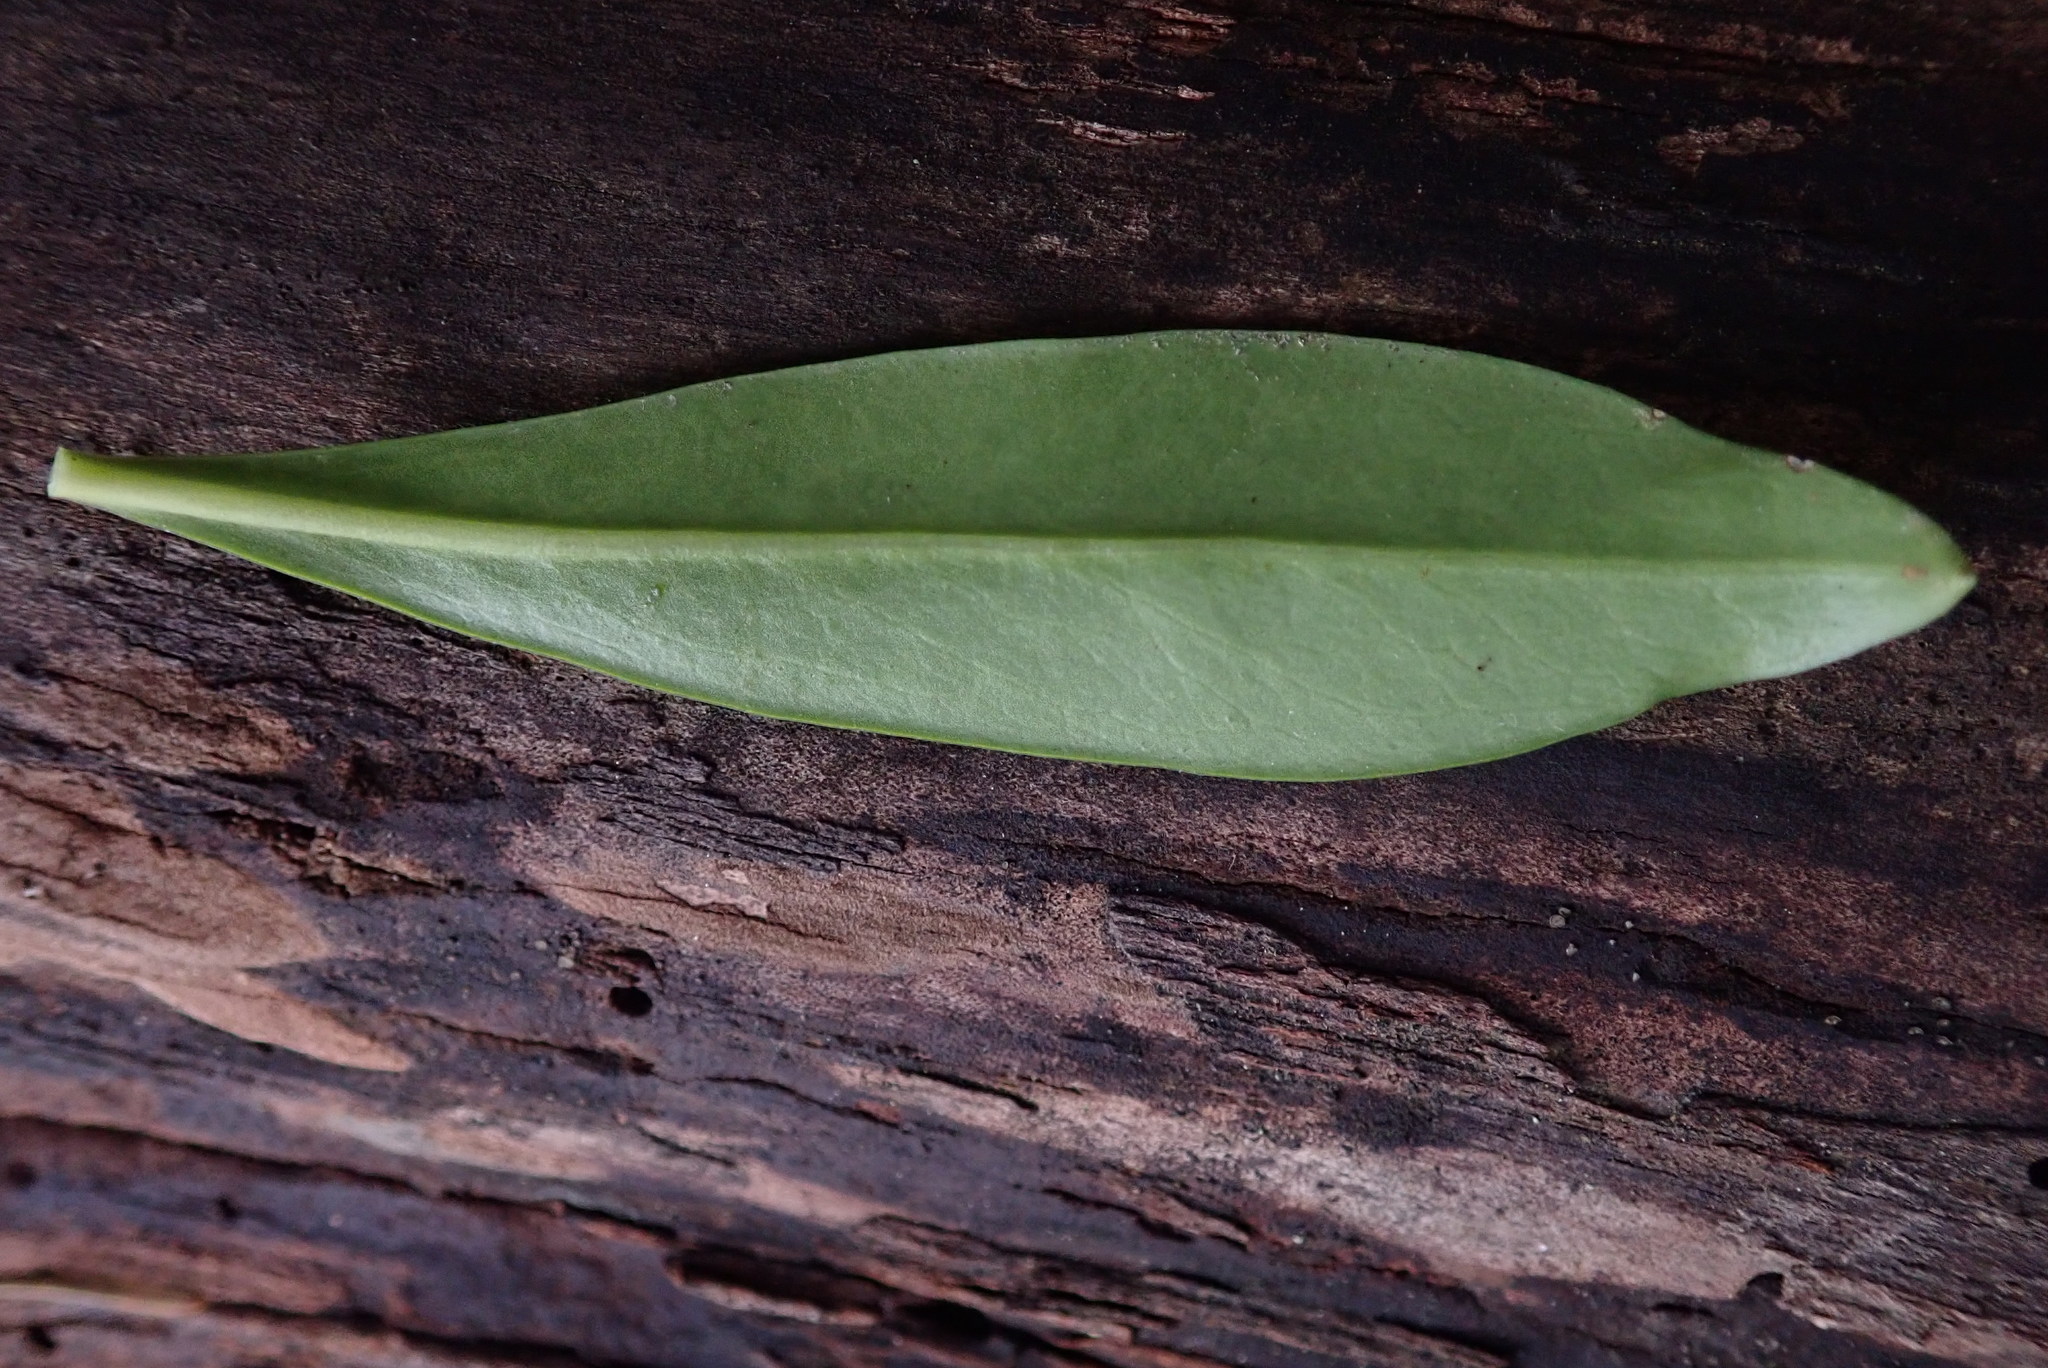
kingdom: Plantae
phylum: Tracheophyta
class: Magnoliopsida
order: Malvales
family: Thymelaeaceae
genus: Daphne
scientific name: Daphne laureola
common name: Spurge-laurel
